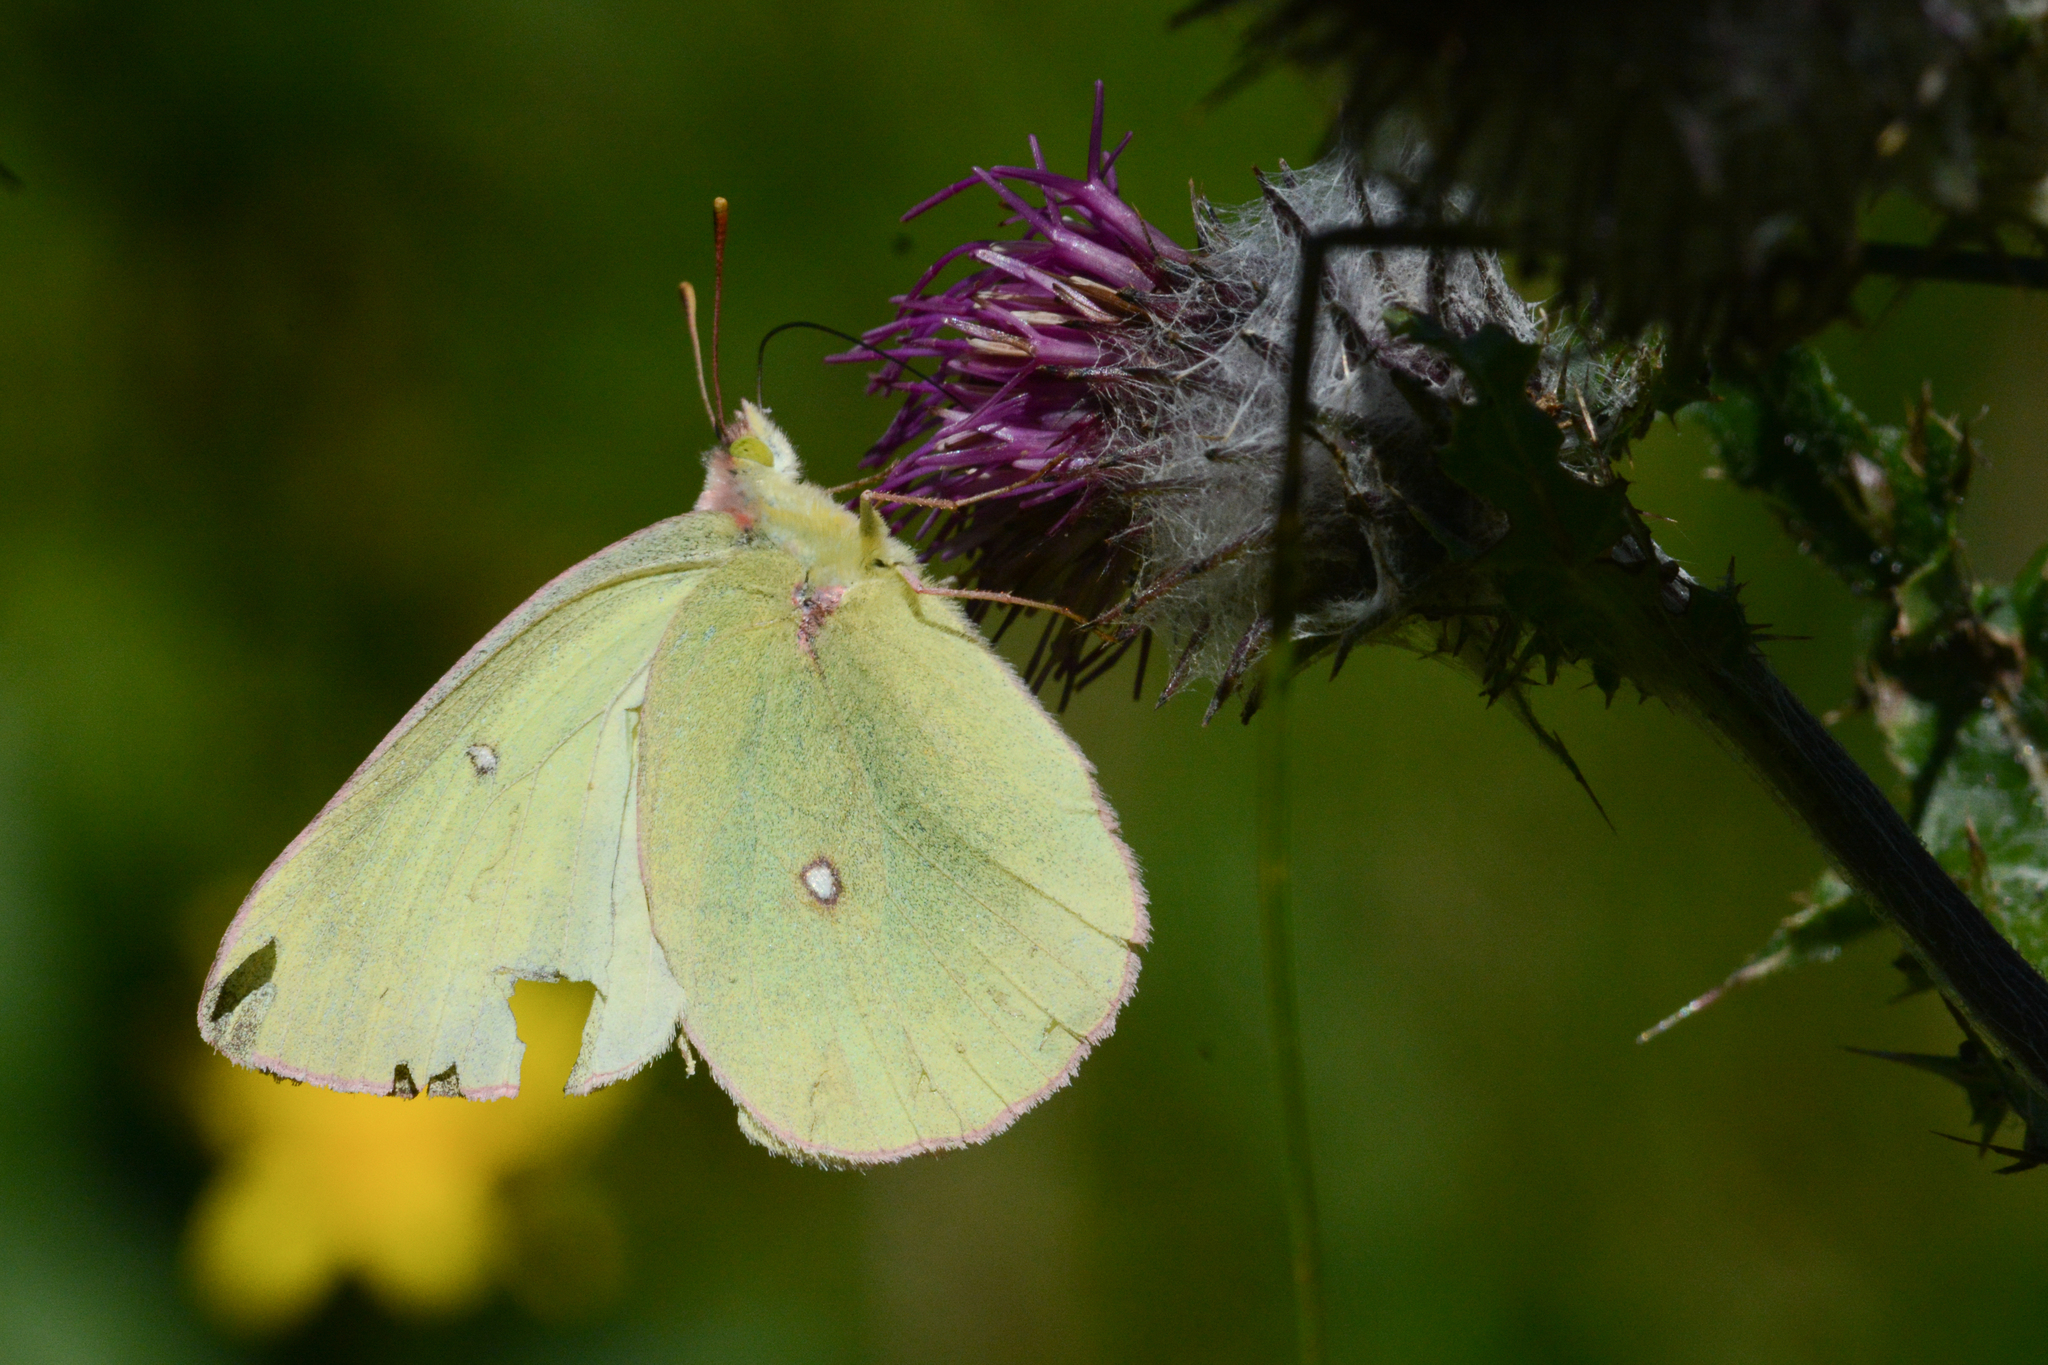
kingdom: Animalia
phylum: Arthropoda
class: Insecta
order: Lepidoptera
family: Pieridae
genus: Colias
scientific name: Colias occidentalis
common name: Western sulphur
